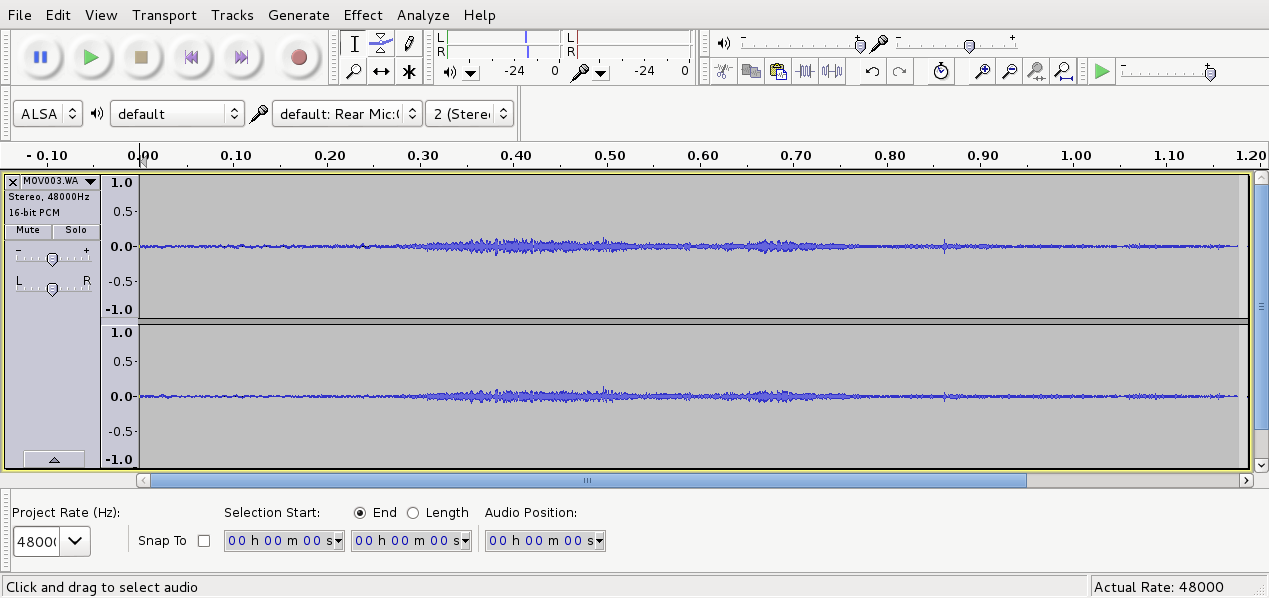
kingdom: Animalia
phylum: Chordata
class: Aves
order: Passeriformes
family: Notiomystidae
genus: Notiomystis
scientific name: Notiomystis cincta
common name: Stitchbird
